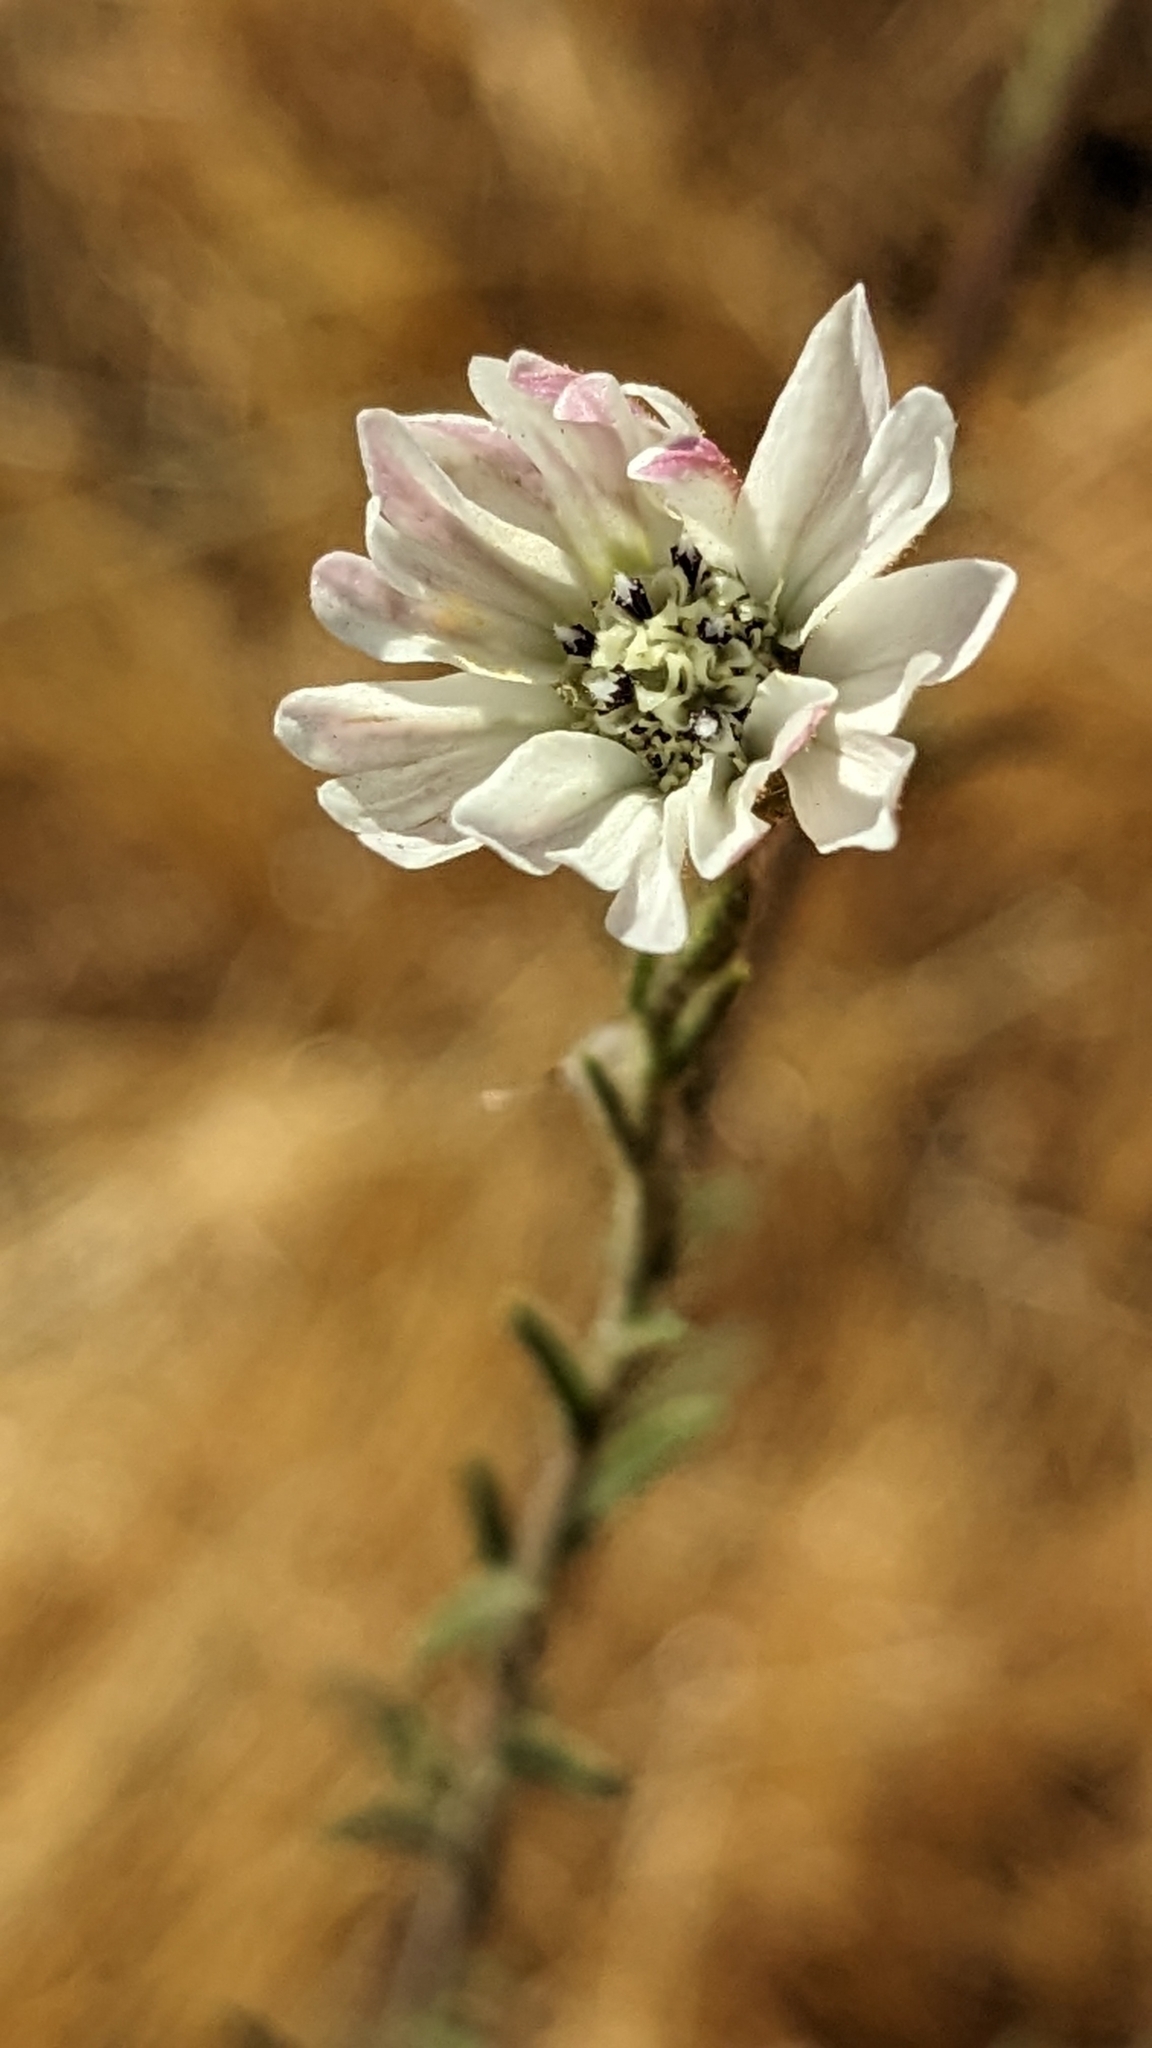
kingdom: Plantae
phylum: Tracheophyta
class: Magnoliopsida
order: Asterales
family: Asteraceae
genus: Hemizonia
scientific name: Hemizonia congesta
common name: Hayfield tarweed
